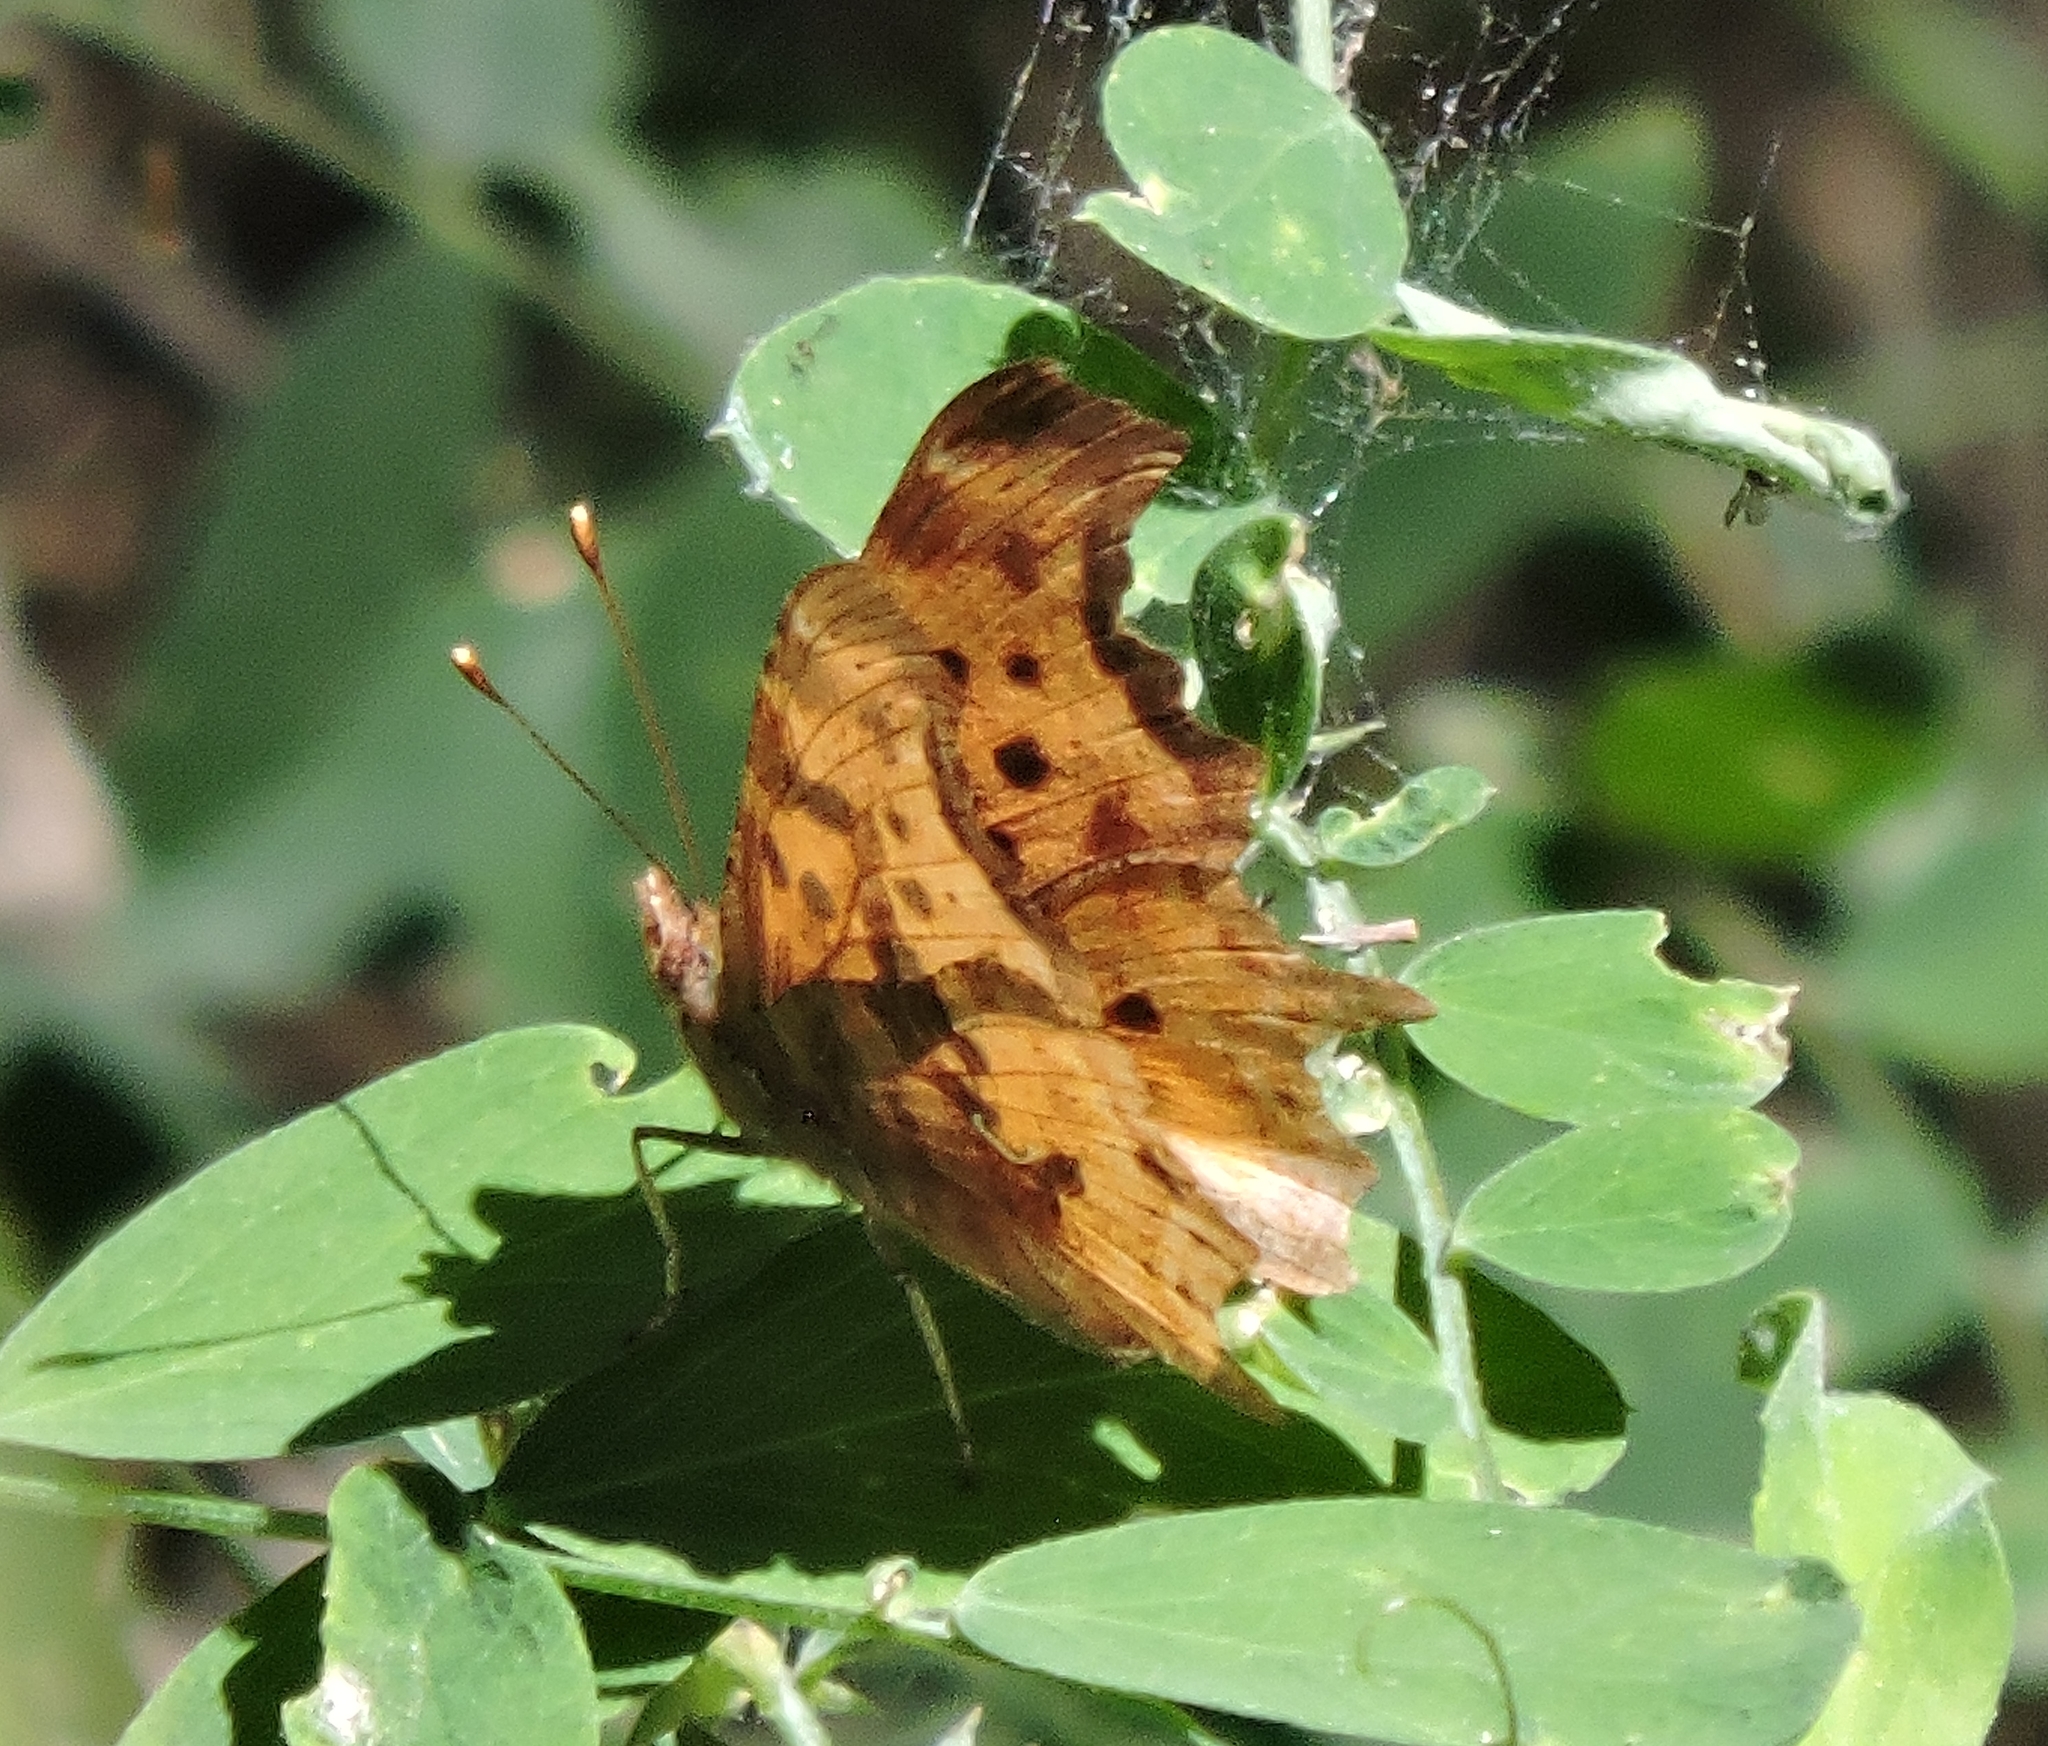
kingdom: Animalia
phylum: Arthropoda
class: Insecta
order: Lepidoptera
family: Nymphalidae
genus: Polygonia
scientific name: Polygonia satyrus
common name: Satyr angle wing
